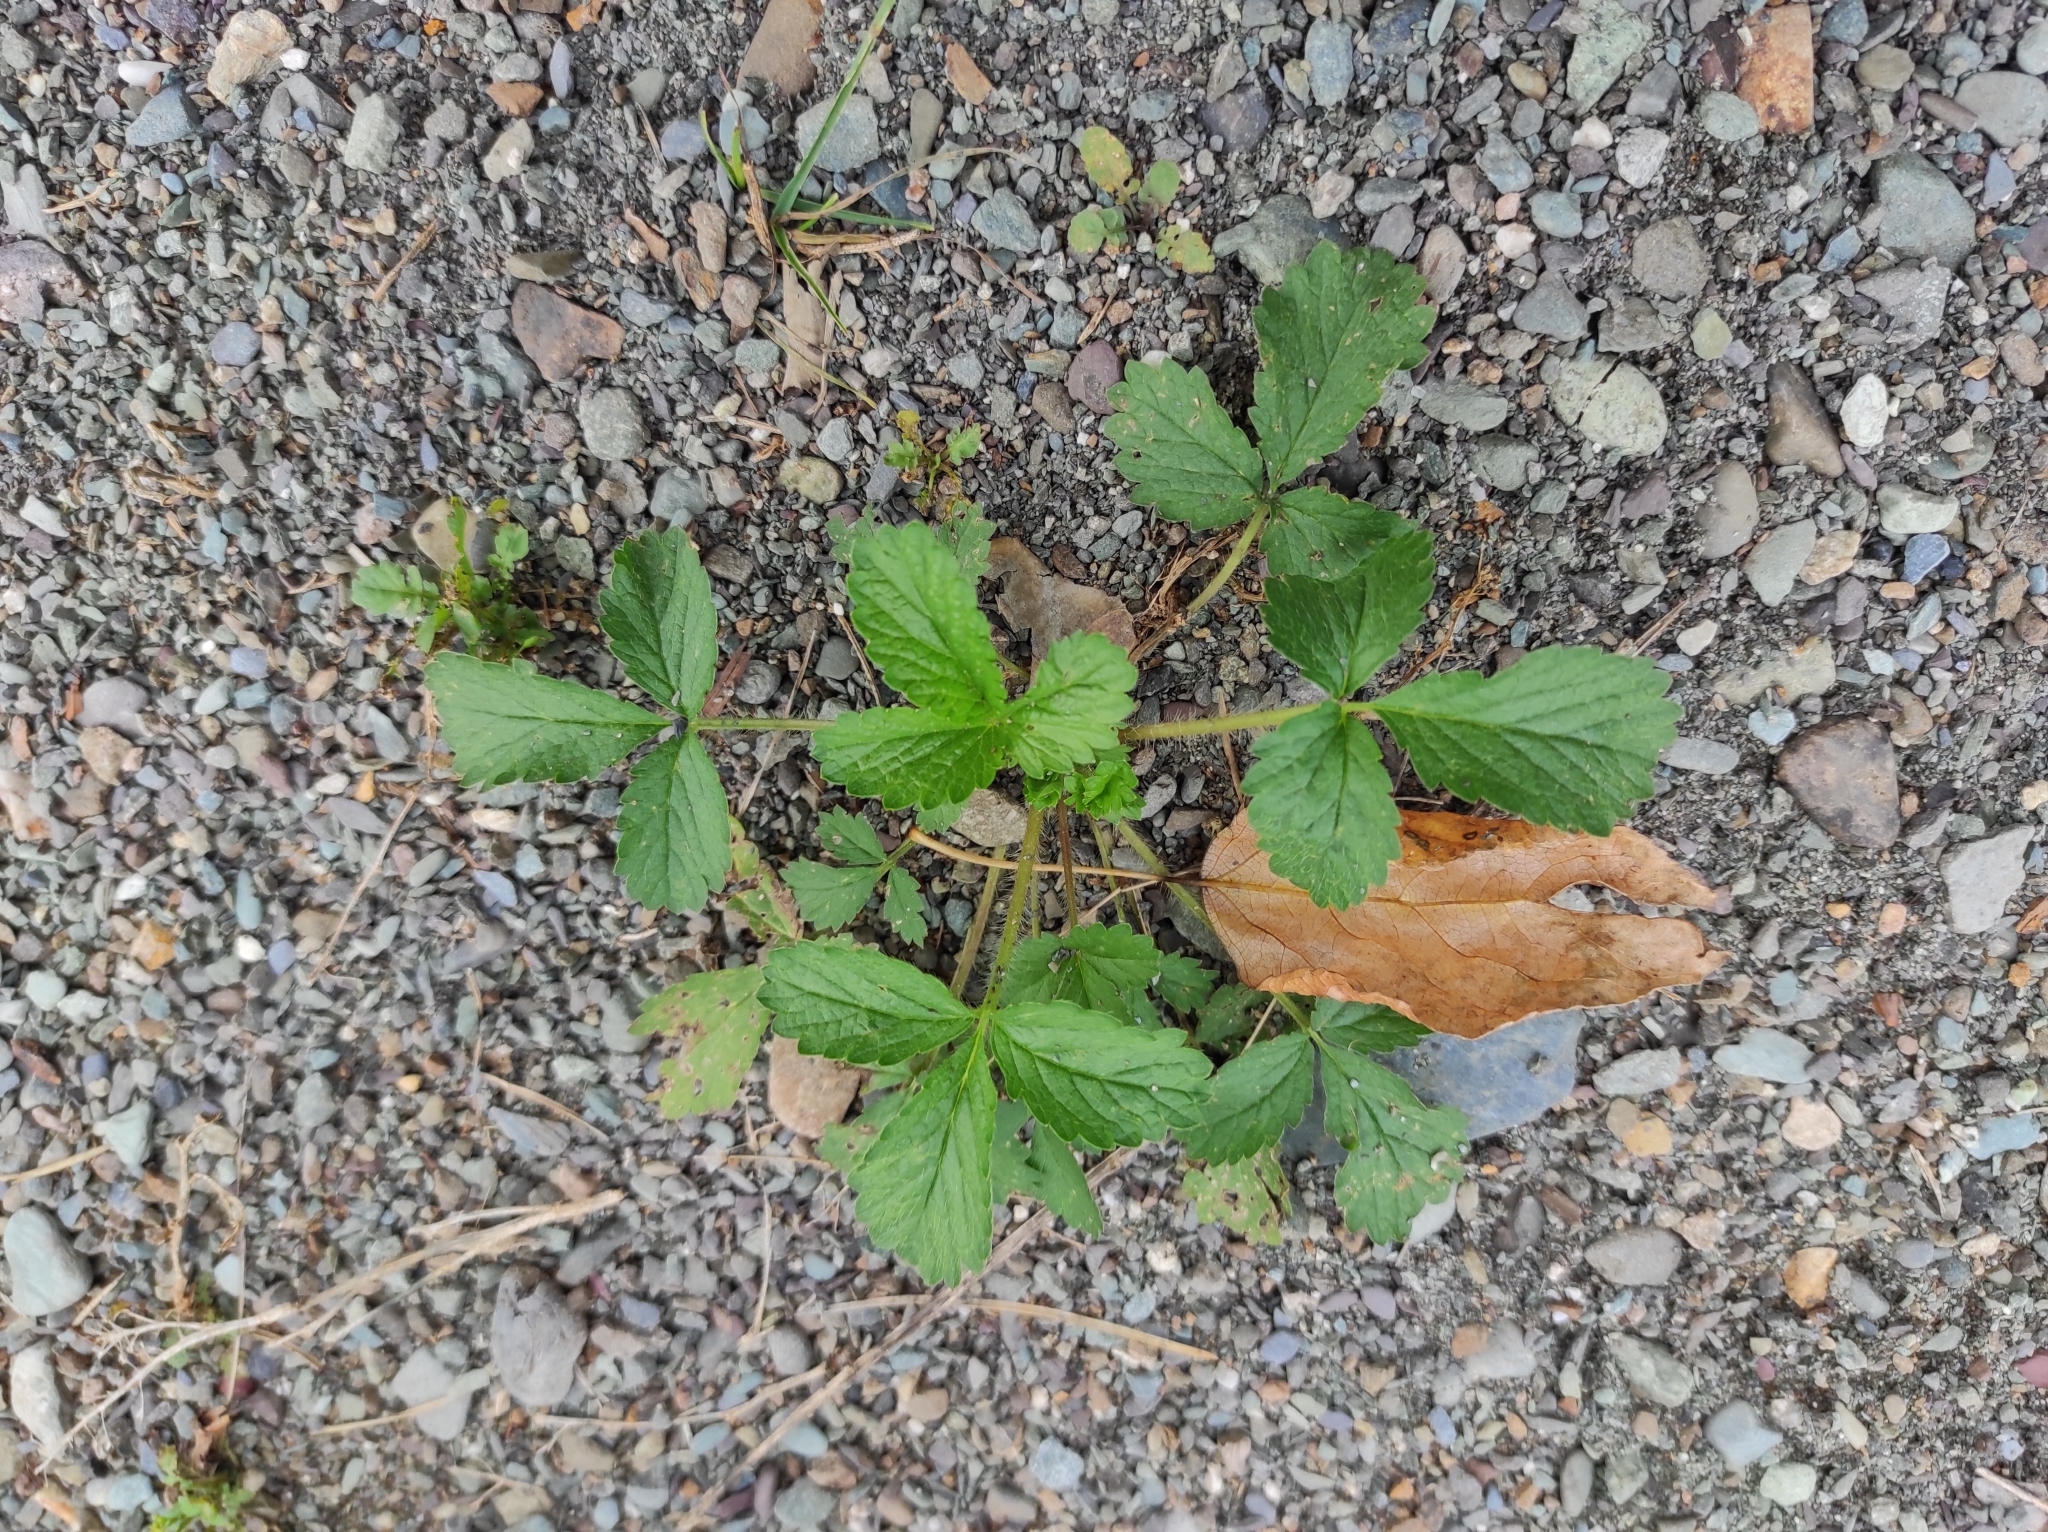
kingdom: Plantae
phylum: Tracheophyta
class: Magnoliopsida
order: Rosales
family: Rosaceae
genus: Potentilla
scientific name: Potentilla norvegica
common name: Ternate-leaved cinquefoil
